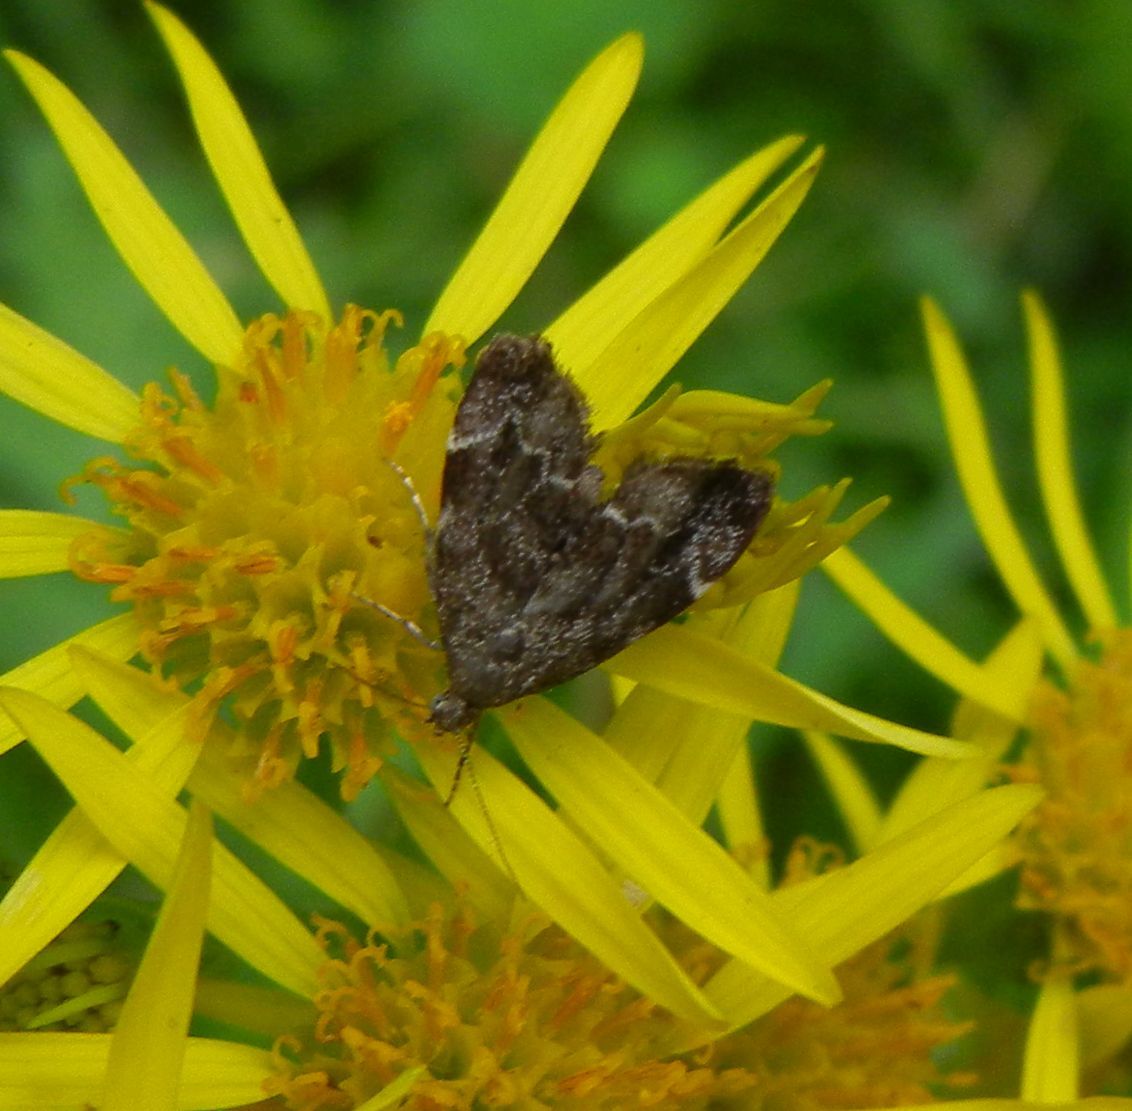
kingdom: Animalia
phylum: Arthropoda
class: Insecta
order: Lepidoptera
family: Choreutidae
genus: Anthophila
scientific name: Anthophila fabriciana
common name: Nettle-tap
